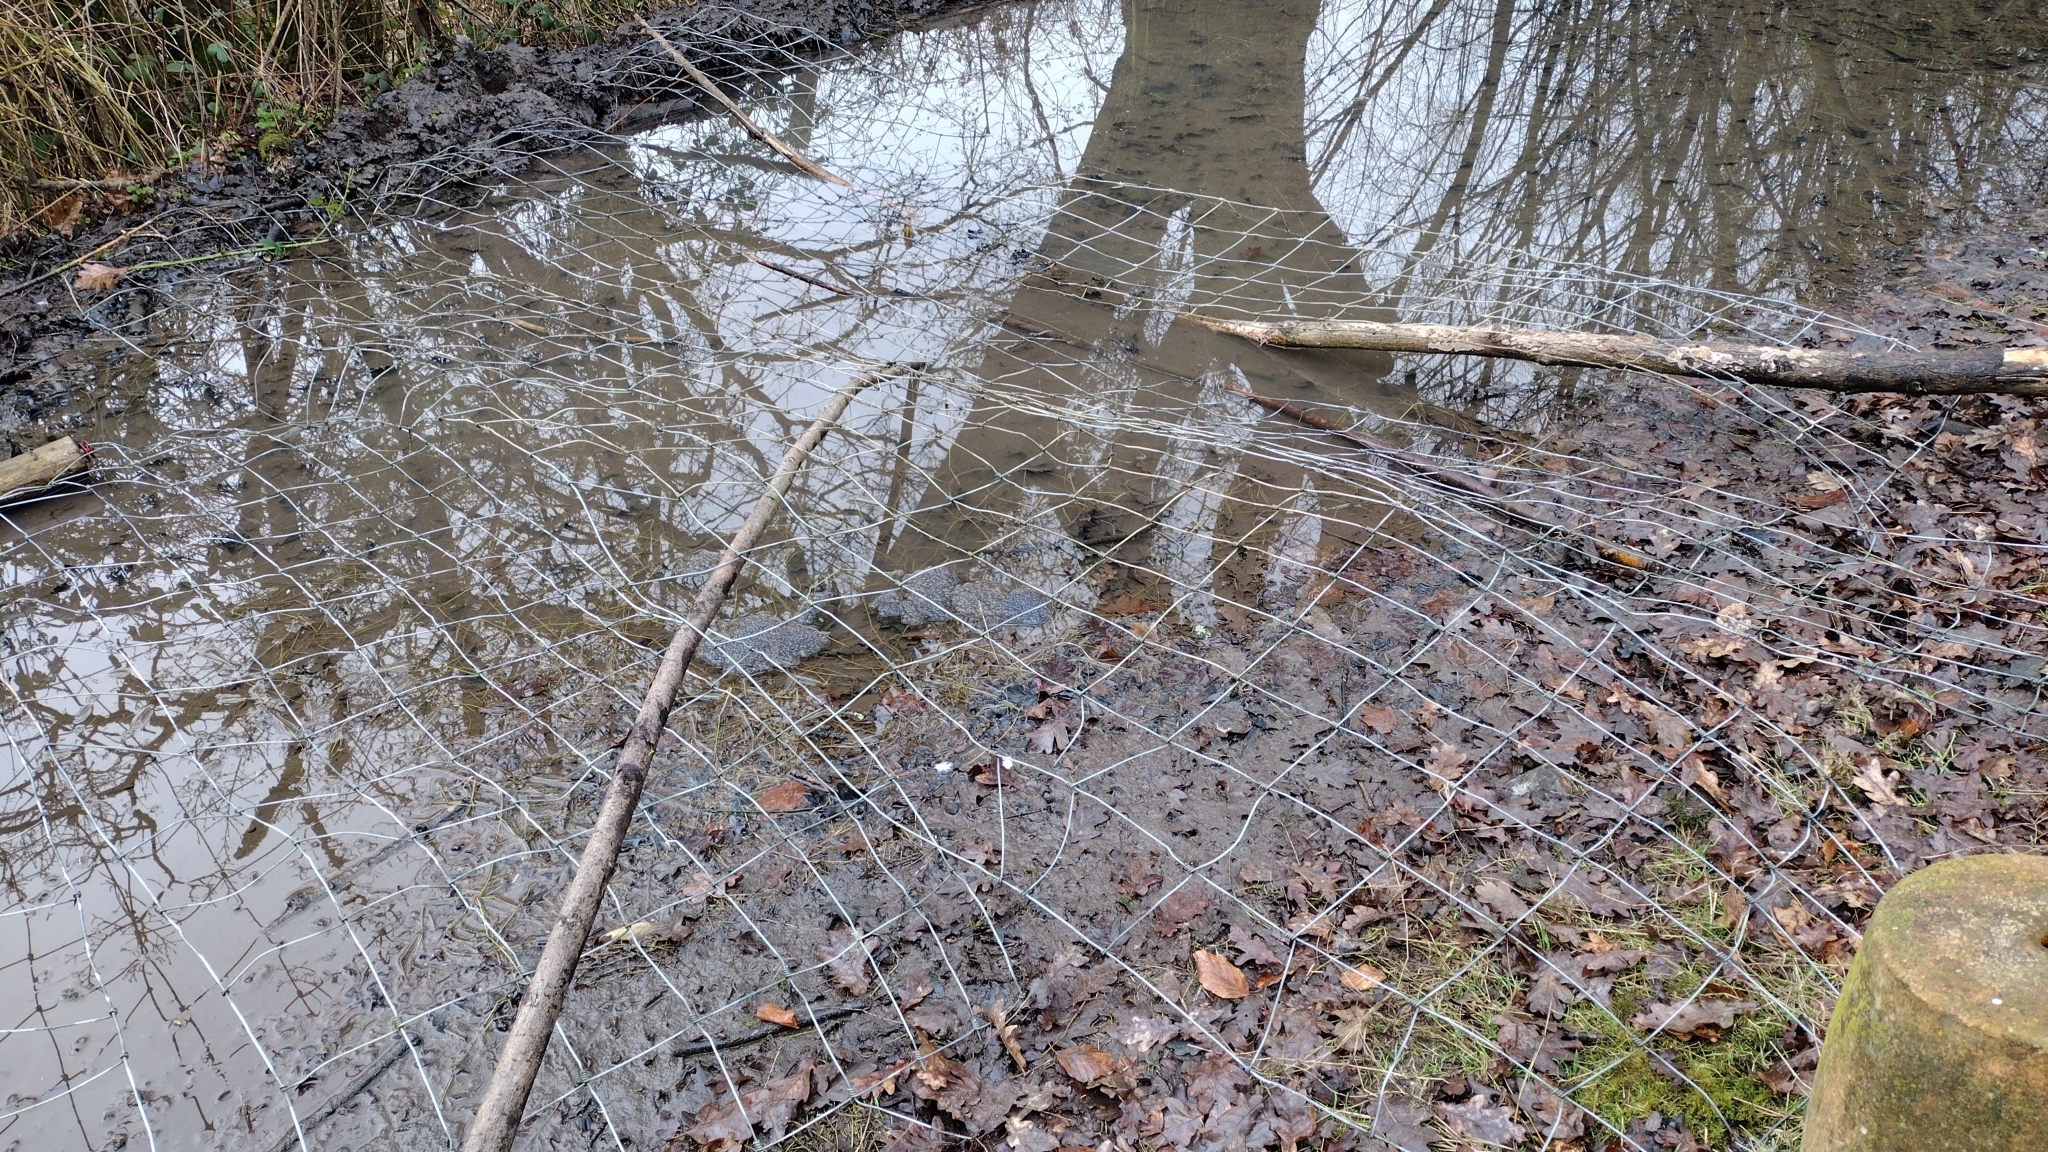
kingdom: Animalia
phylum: Chordata
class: Amphibia
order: Anura
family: Ranidae
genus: Rana
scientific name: Rana temporaria
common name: Common frog
